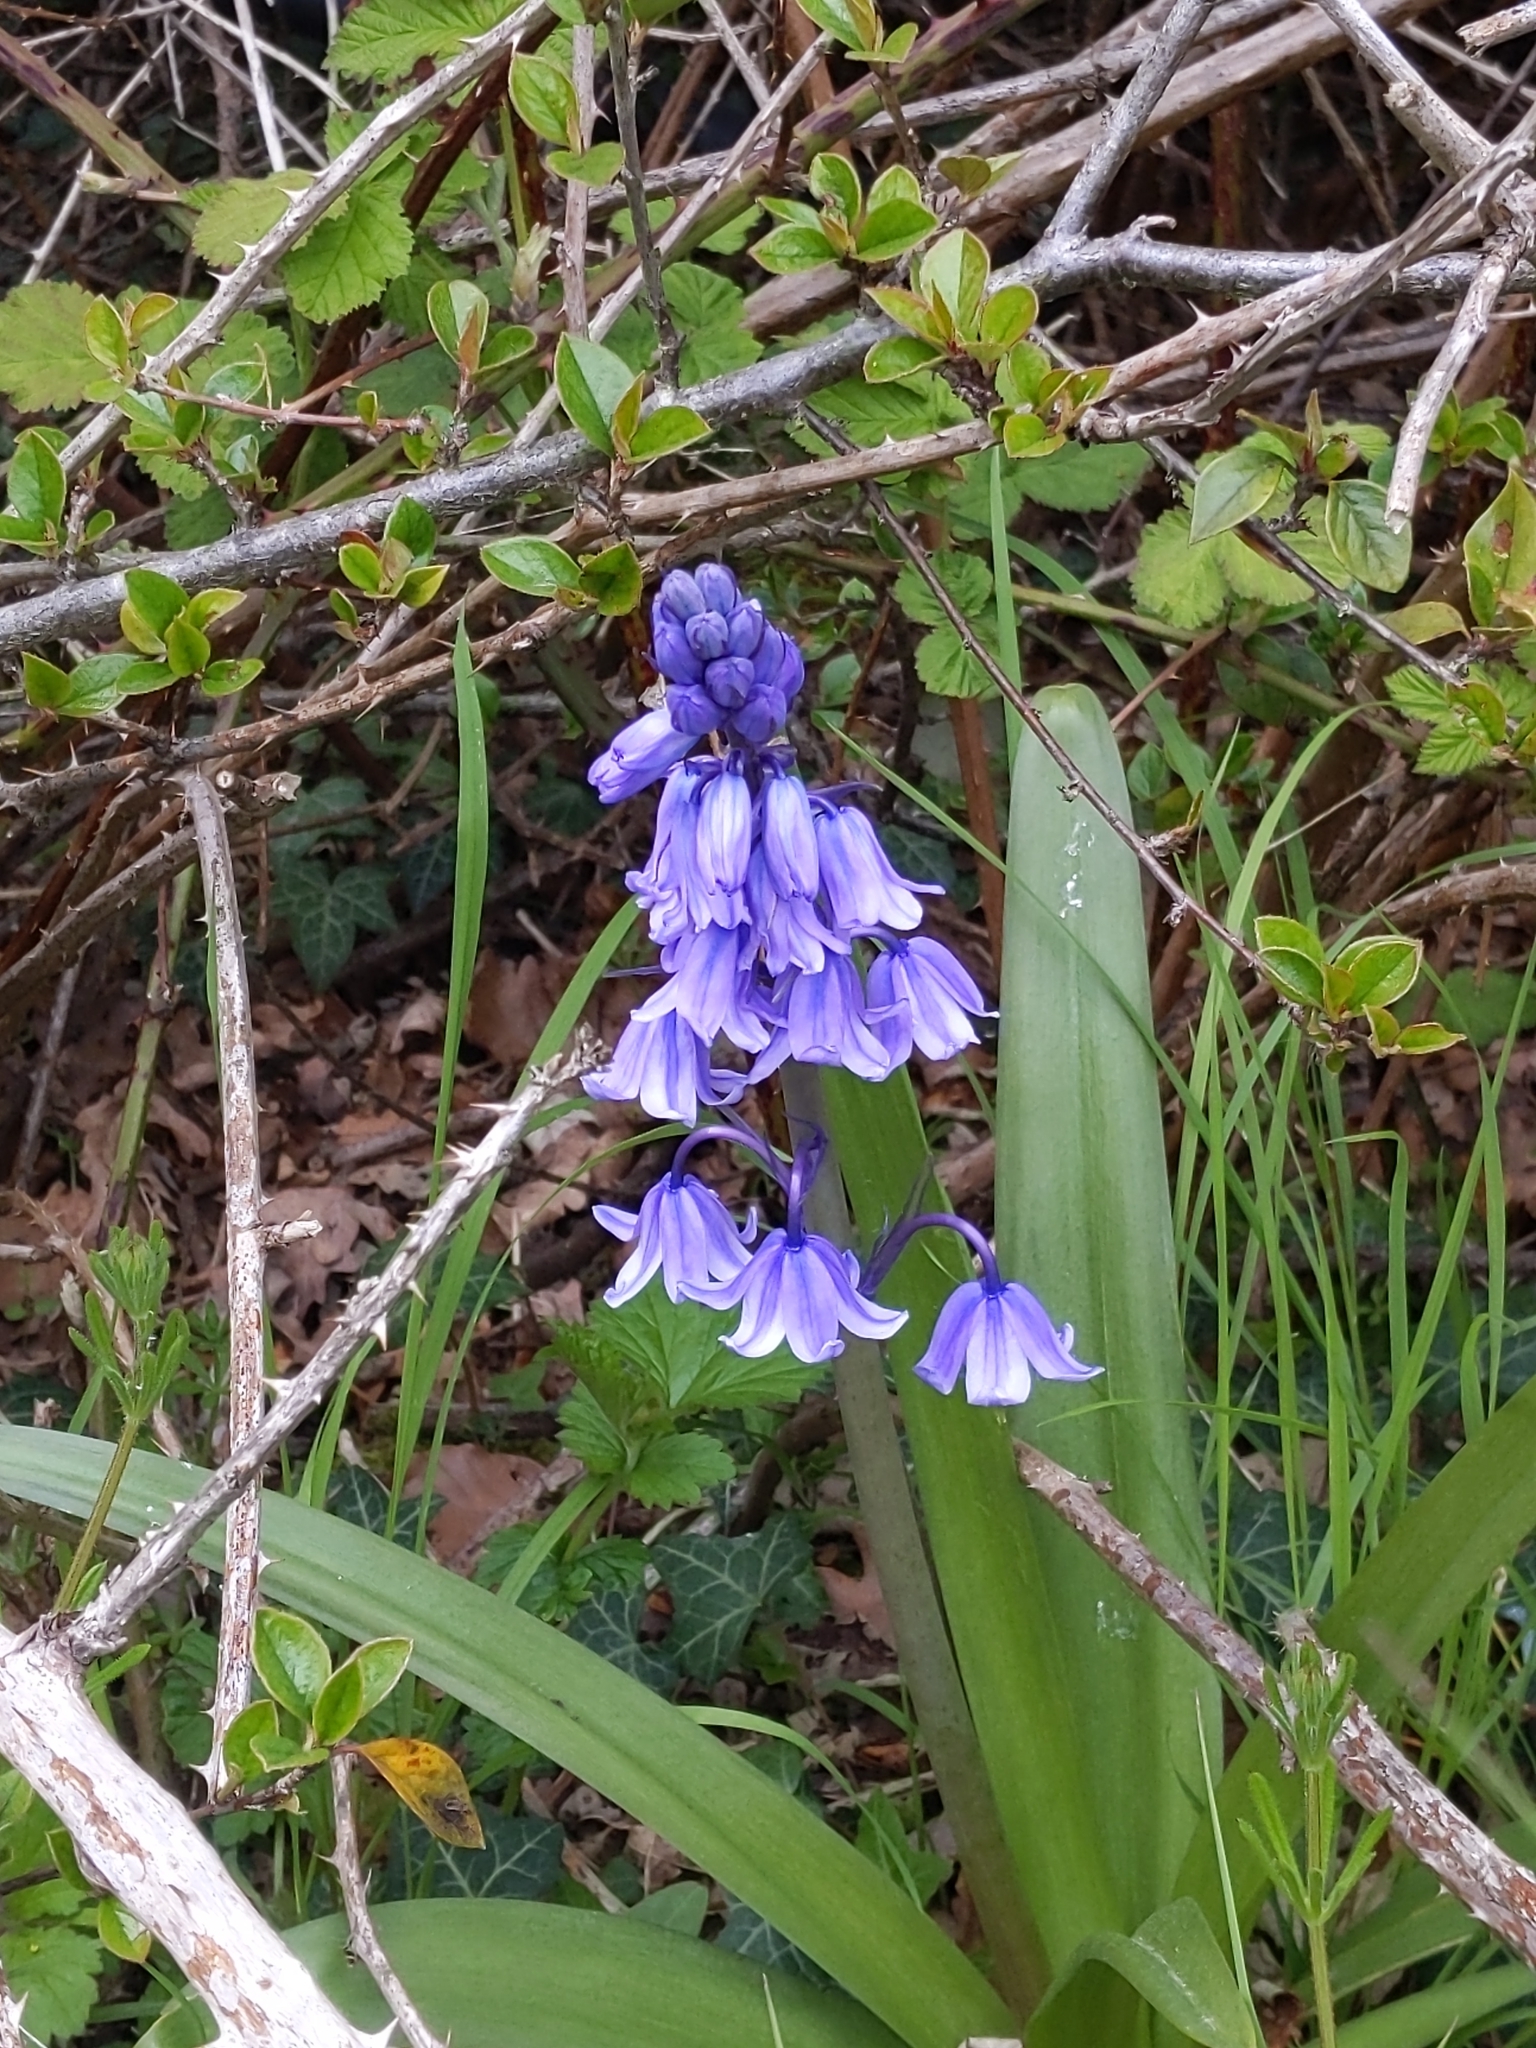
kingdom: Plantae
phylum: Tracheophyta
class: Liliopsida
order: Asparagales
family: Asparagaceae
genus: Hyacinthoides
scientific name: Hyacinthoides massartiana
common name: Hyacinthoides
